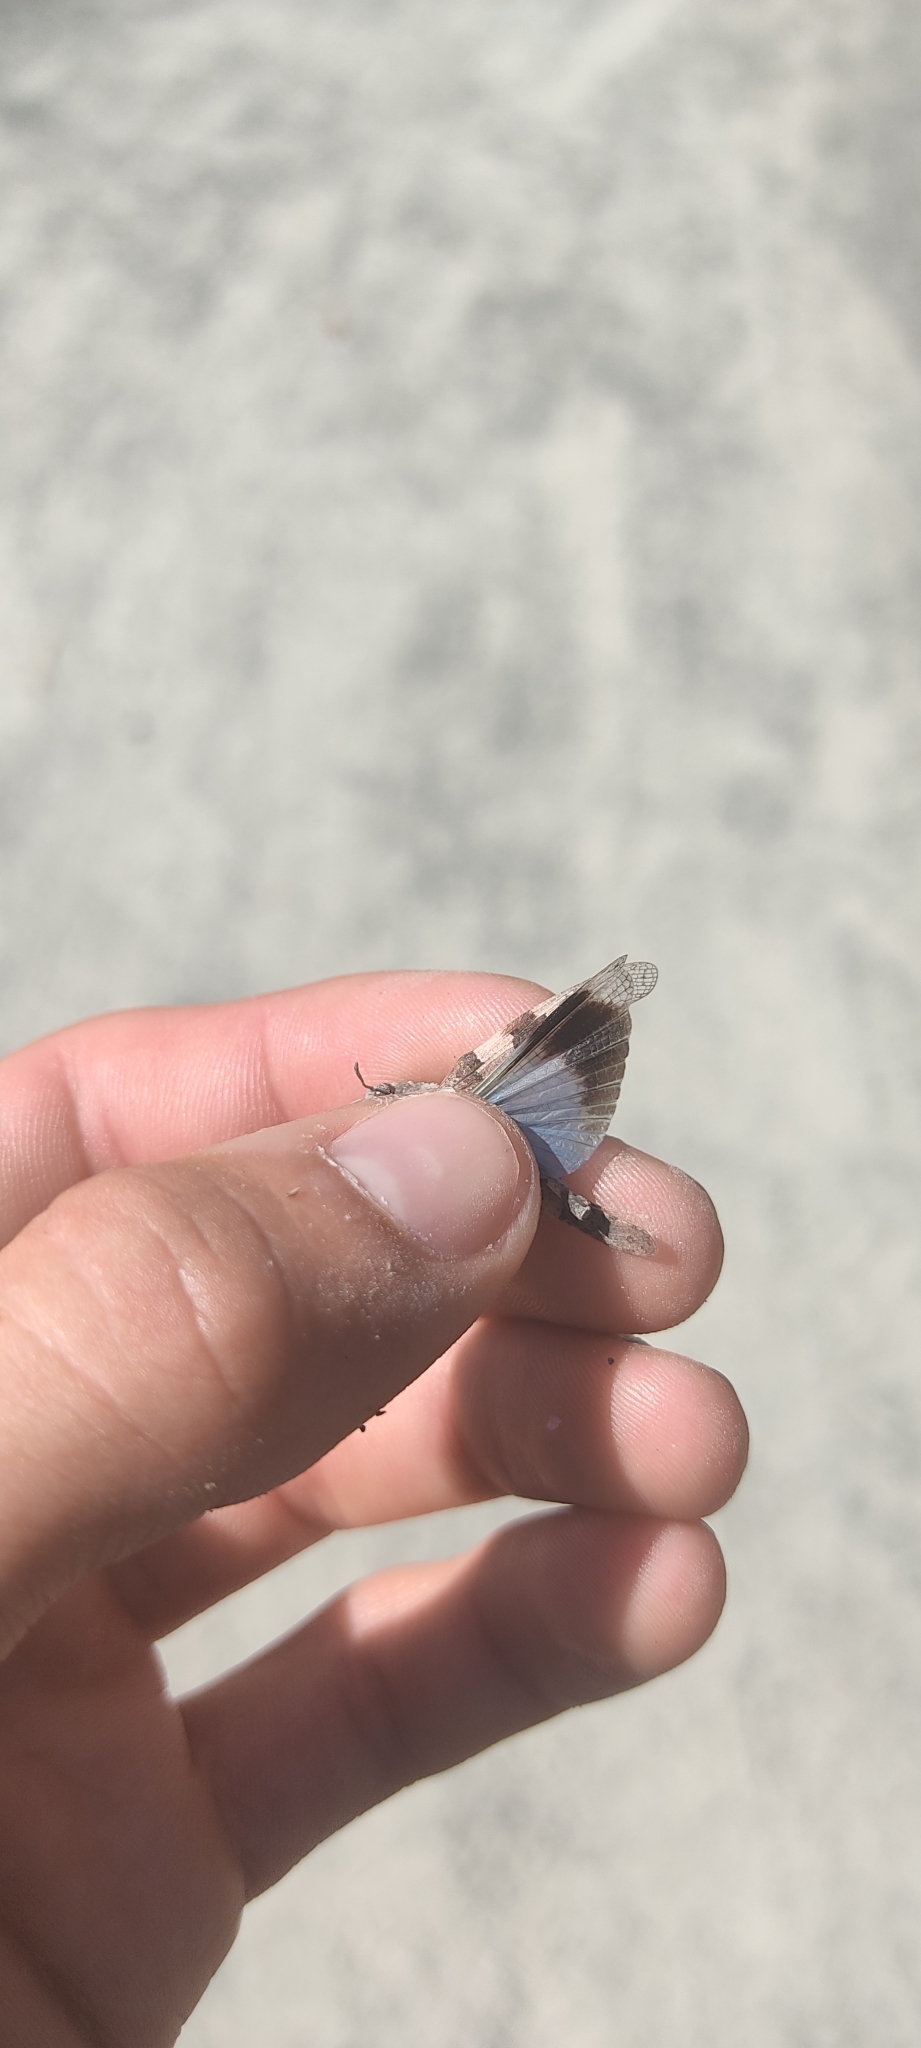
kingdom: Animalia
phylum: Arthropoda
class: Insecta
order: Orthoptera
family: Acrididae
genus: Oedipoda
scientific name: Oedipoda caerulescens
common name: Blue-winged grasshopper
